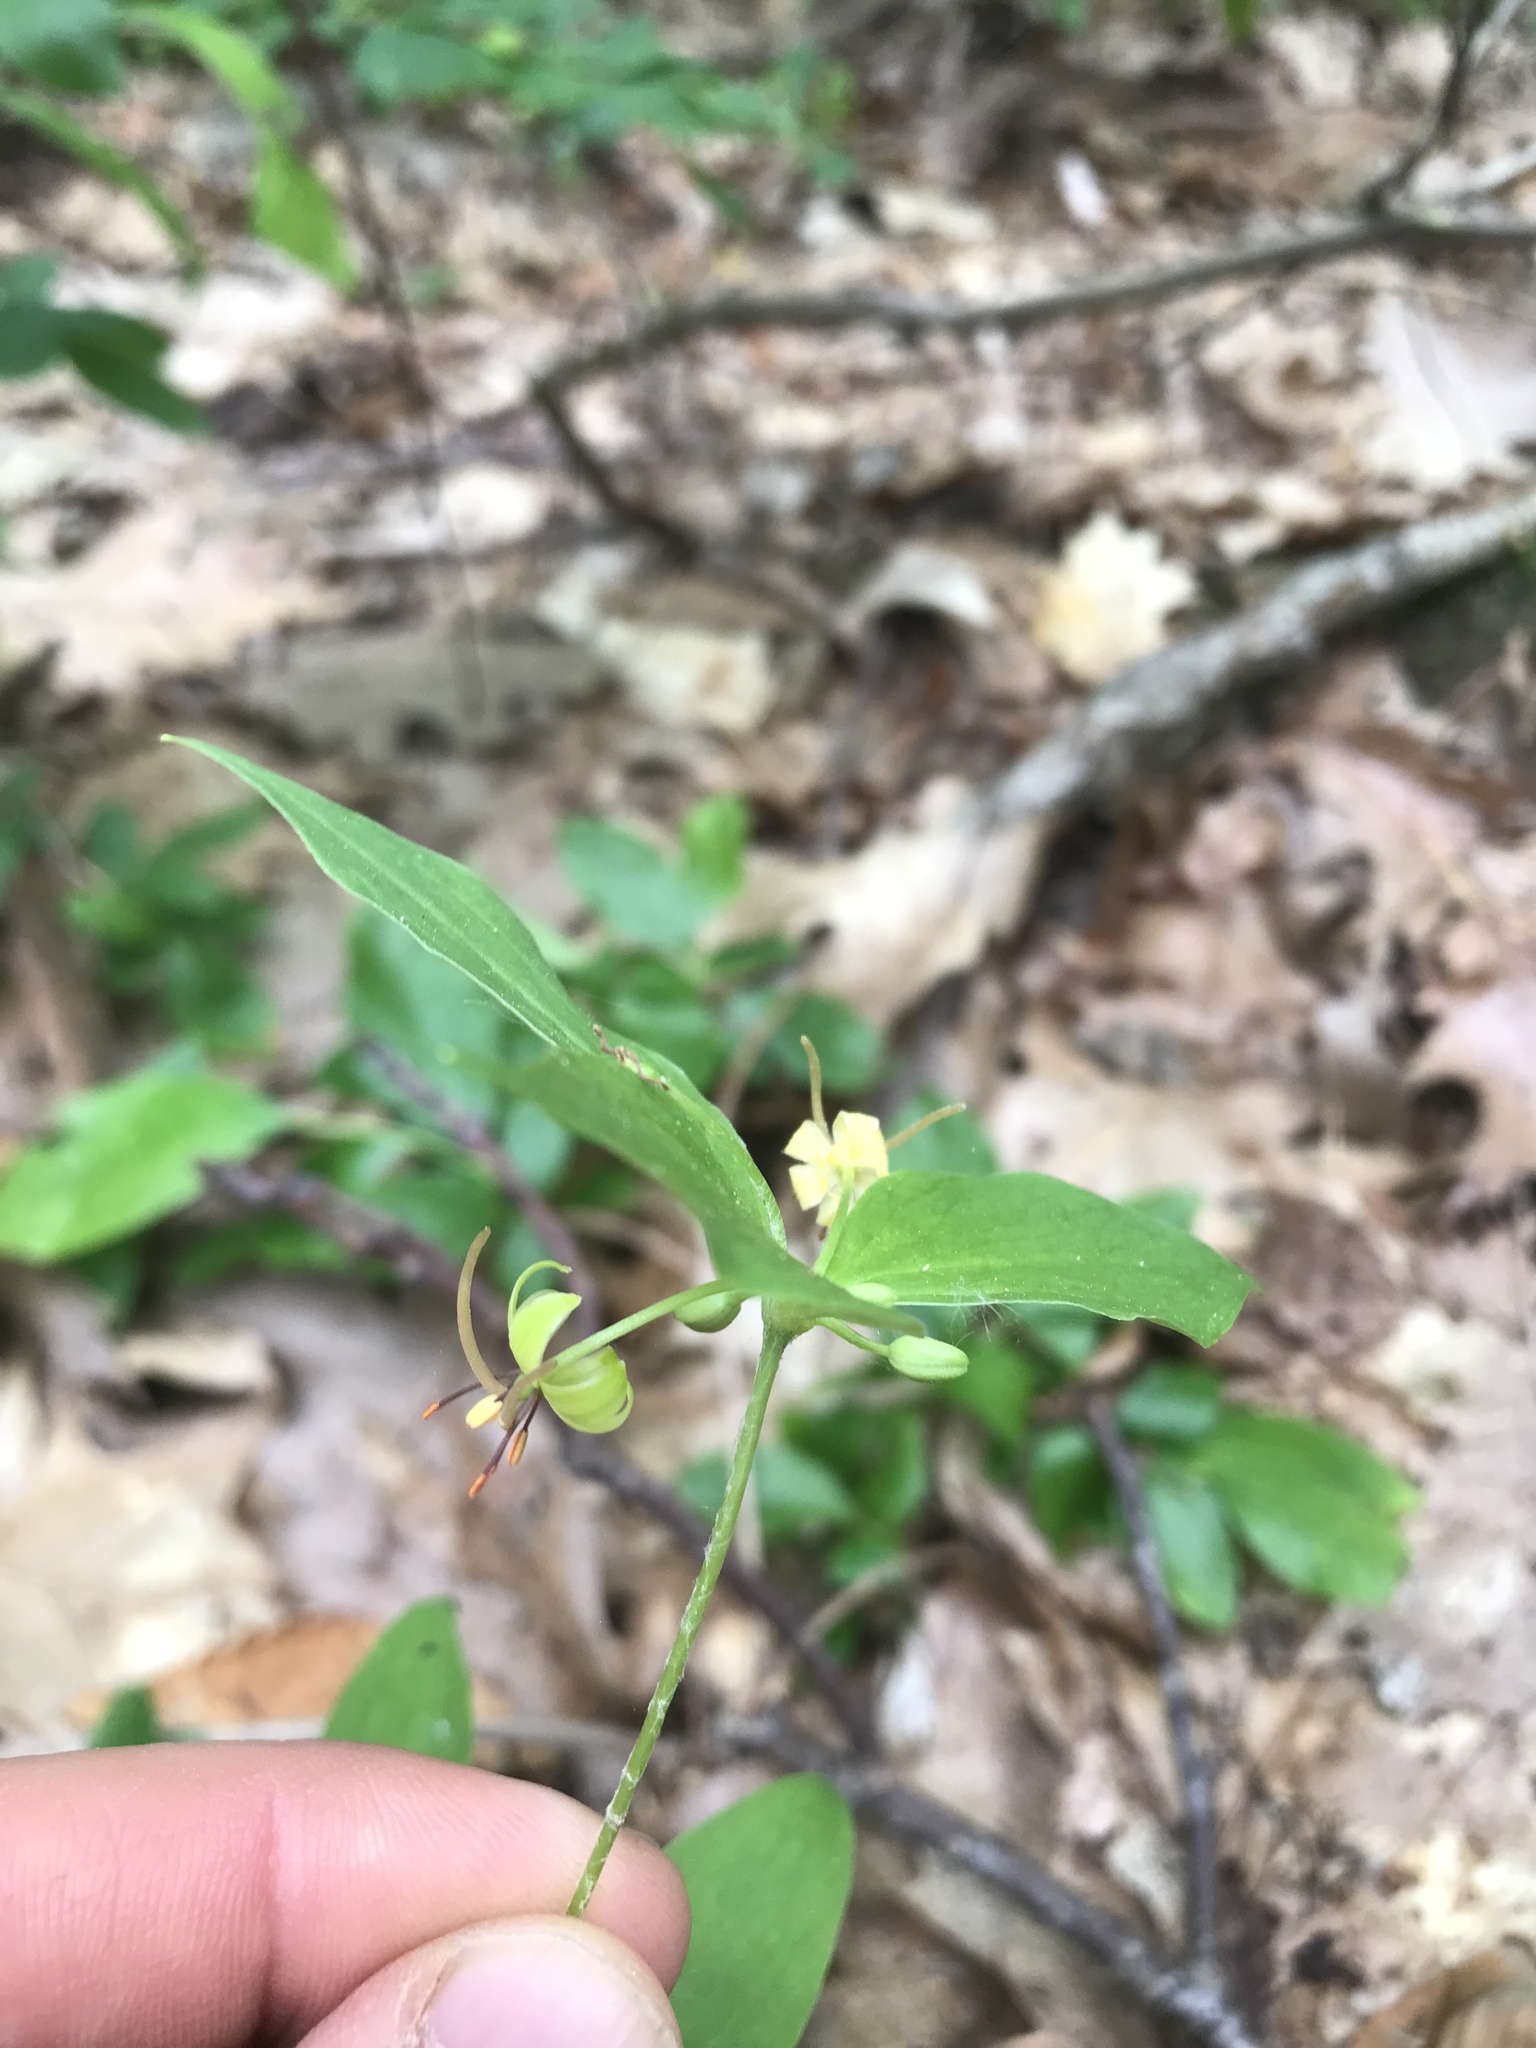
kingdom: Plantae
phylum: Tracheophyta
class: Liliopsida
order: Liliales
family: Liliaceae
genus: Medeola
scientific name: Medeola virginiana
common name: Indian cucumber-root
